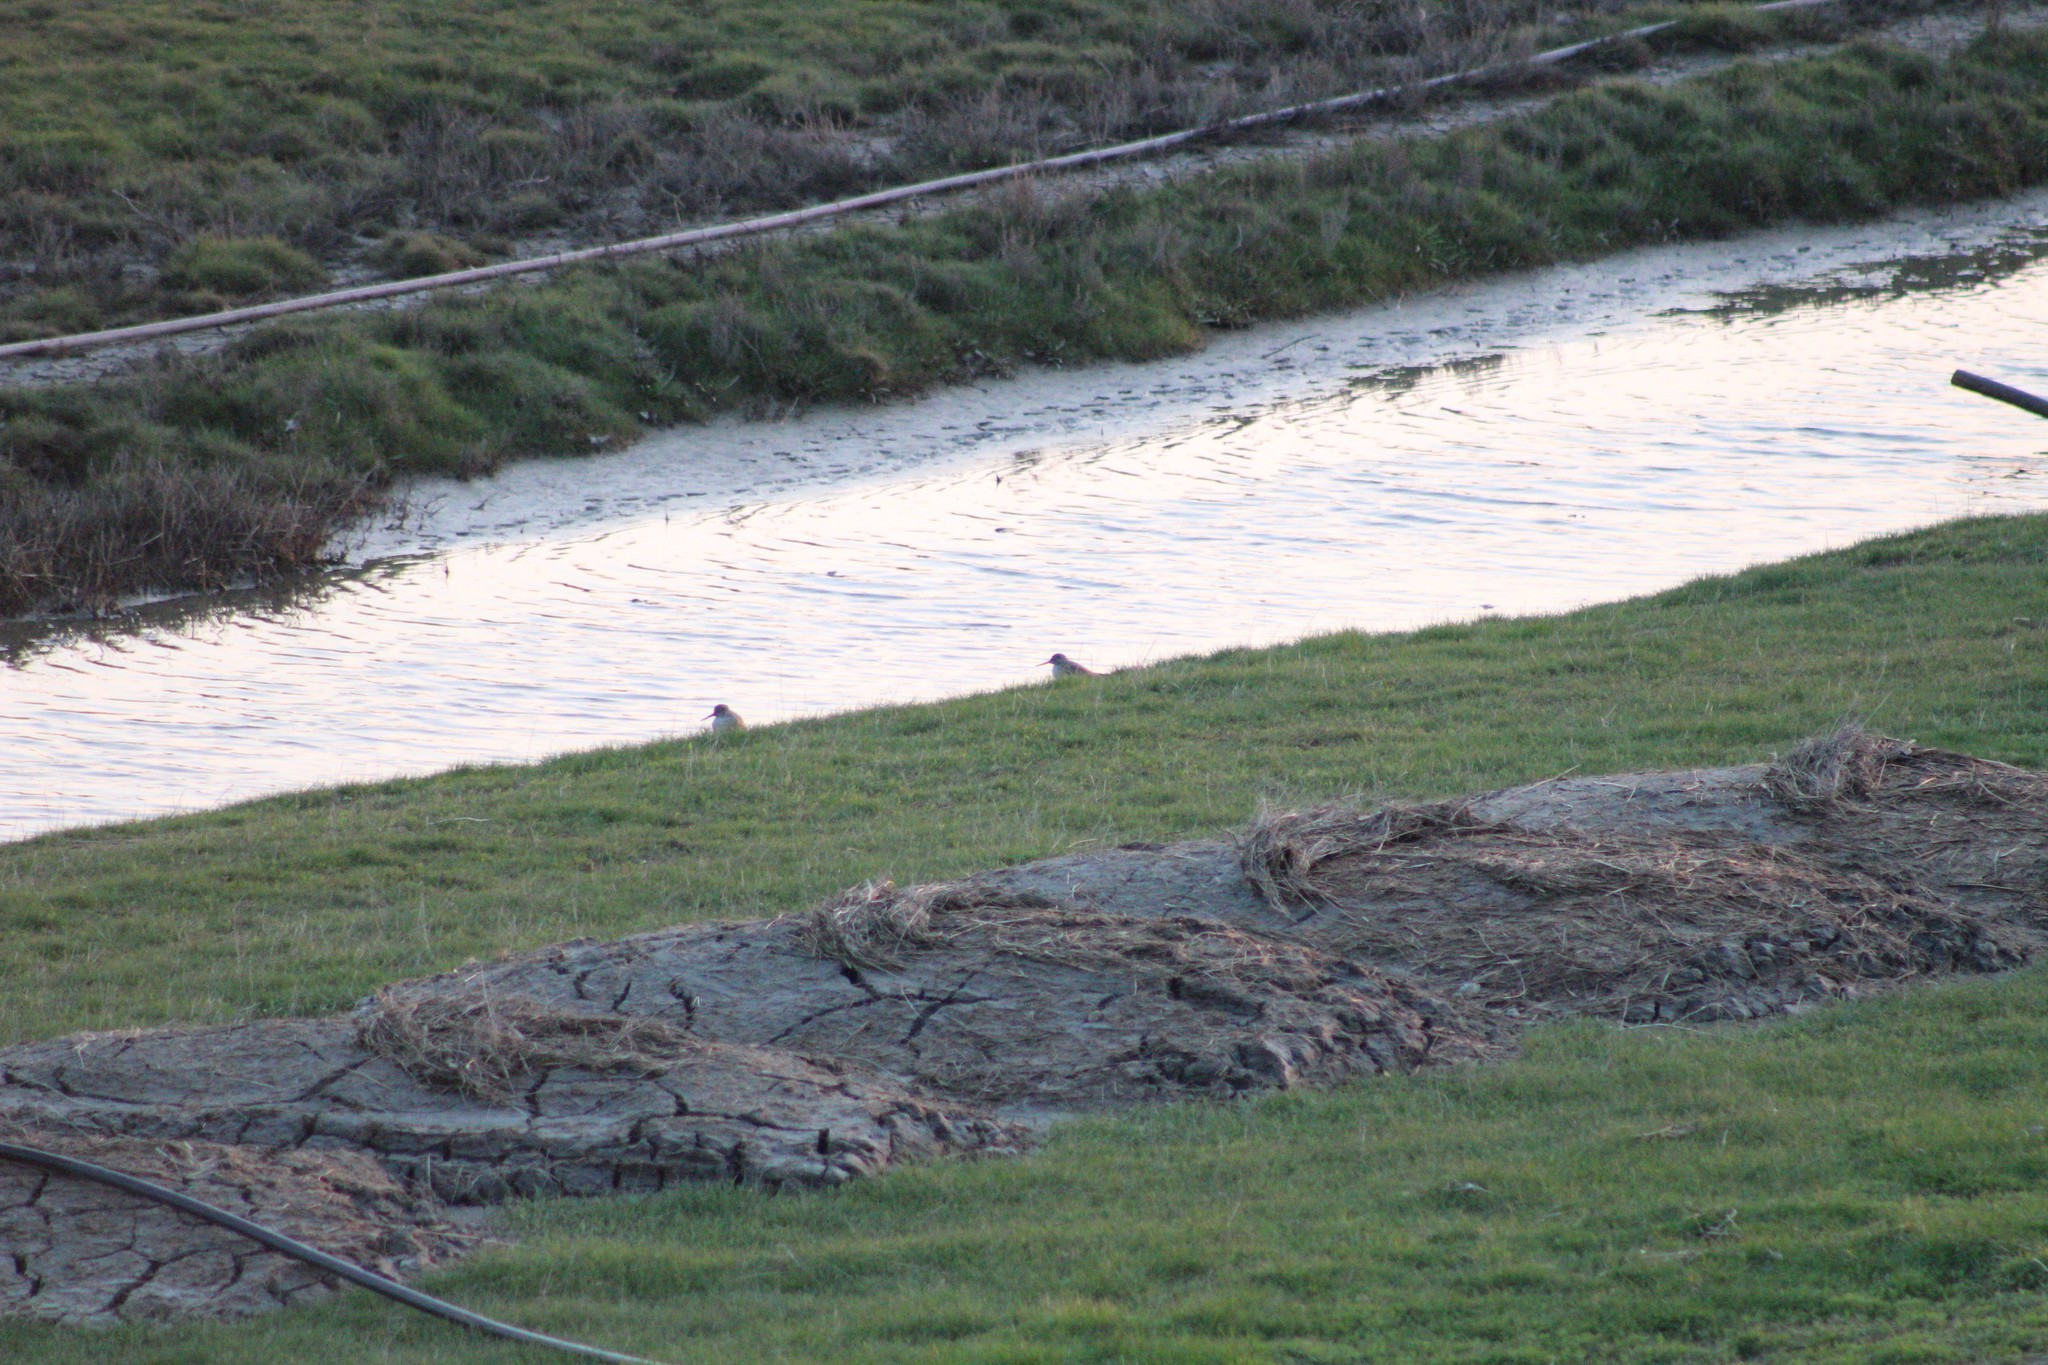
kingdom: Animalia
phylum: Chordata
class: Aves
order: Charadriiformes
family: Scolopacidae
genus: Tringa
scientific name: Tringa totanus
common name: Common redshank
